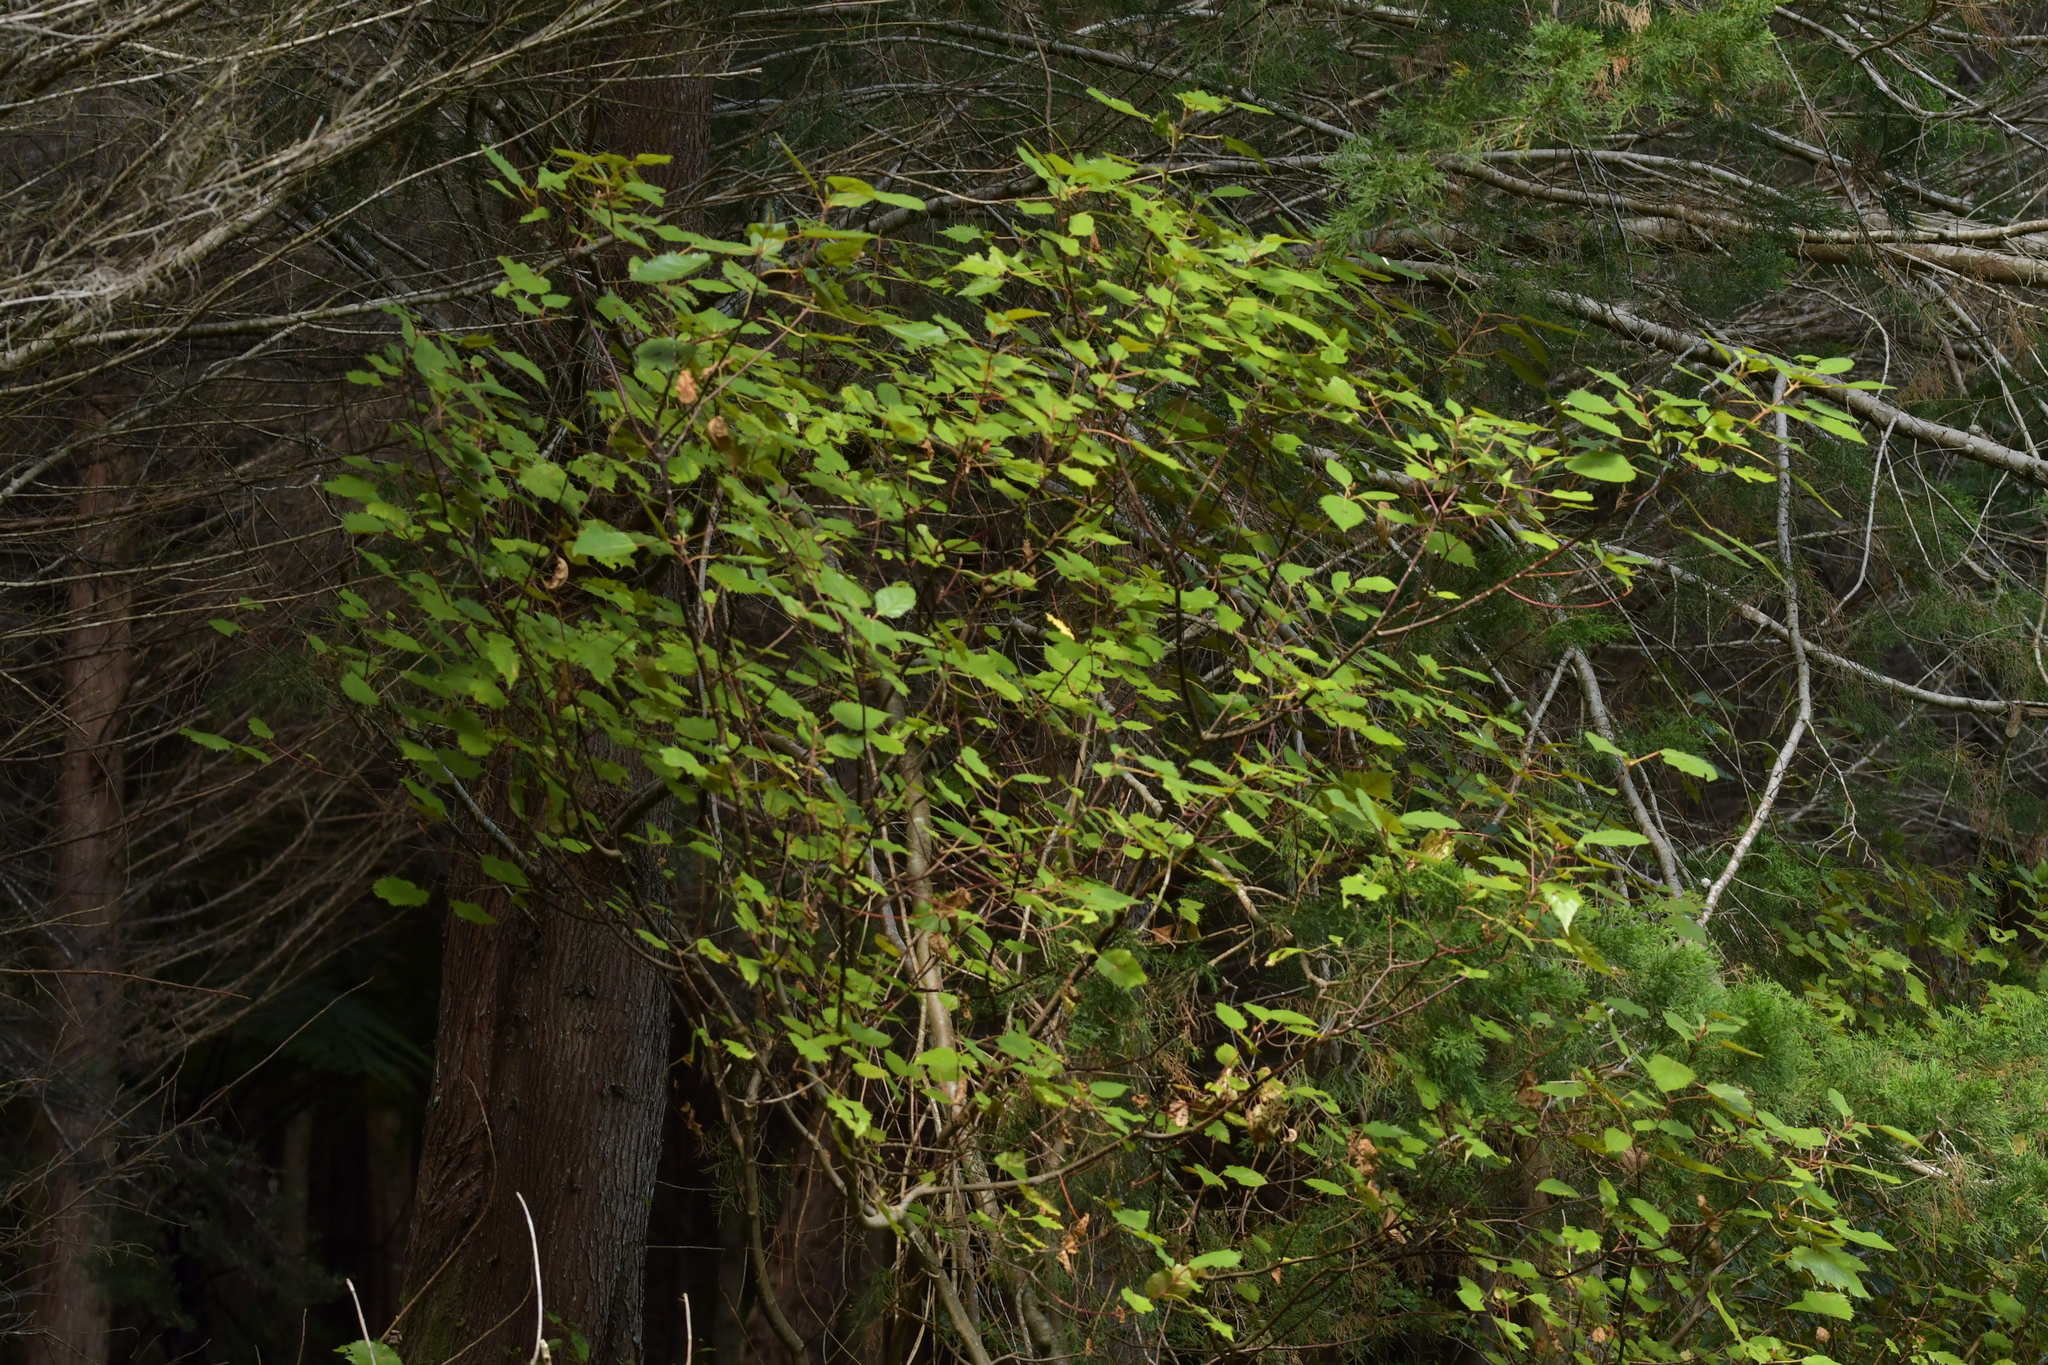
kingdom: Plantae
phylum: Tracheophyta
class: Magnoliopsida
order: Oxalidales
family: Elaeocarpaceae
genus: Aristotelia
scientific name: Aristotelia serrata
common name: New zealand wineberry
